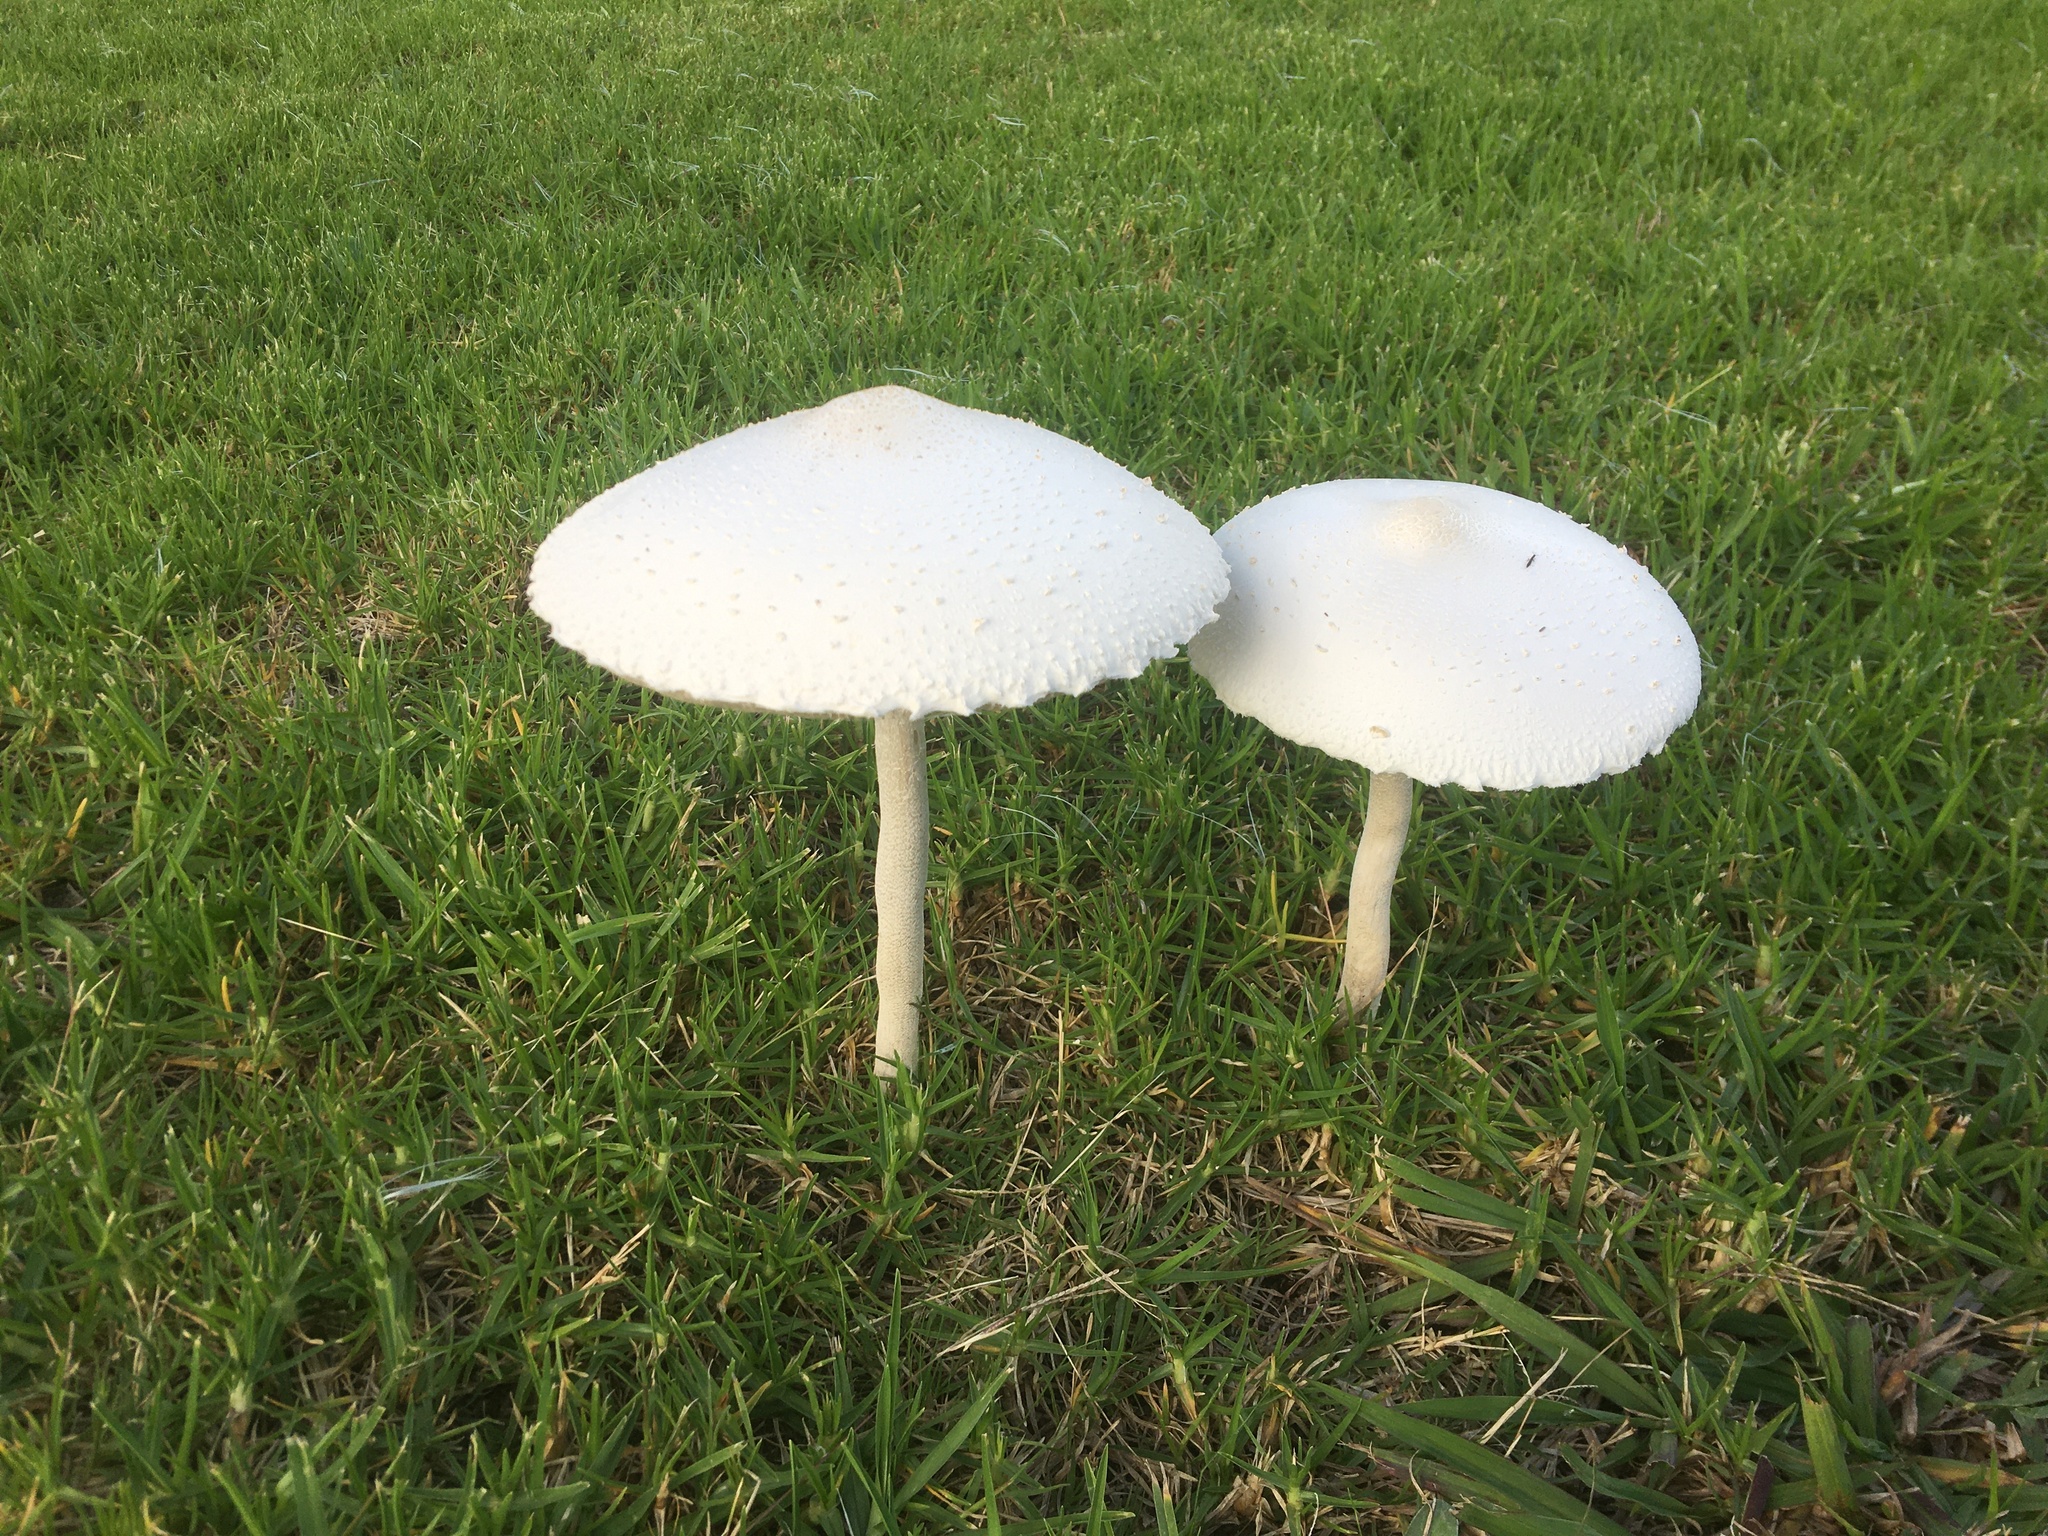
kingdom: Fungi
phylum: Basidiomycota
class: Agaricomycetes
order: Agaricales
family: Agaricaceae
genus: Macrolepiota
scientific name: Macrolepiota dolichaula
